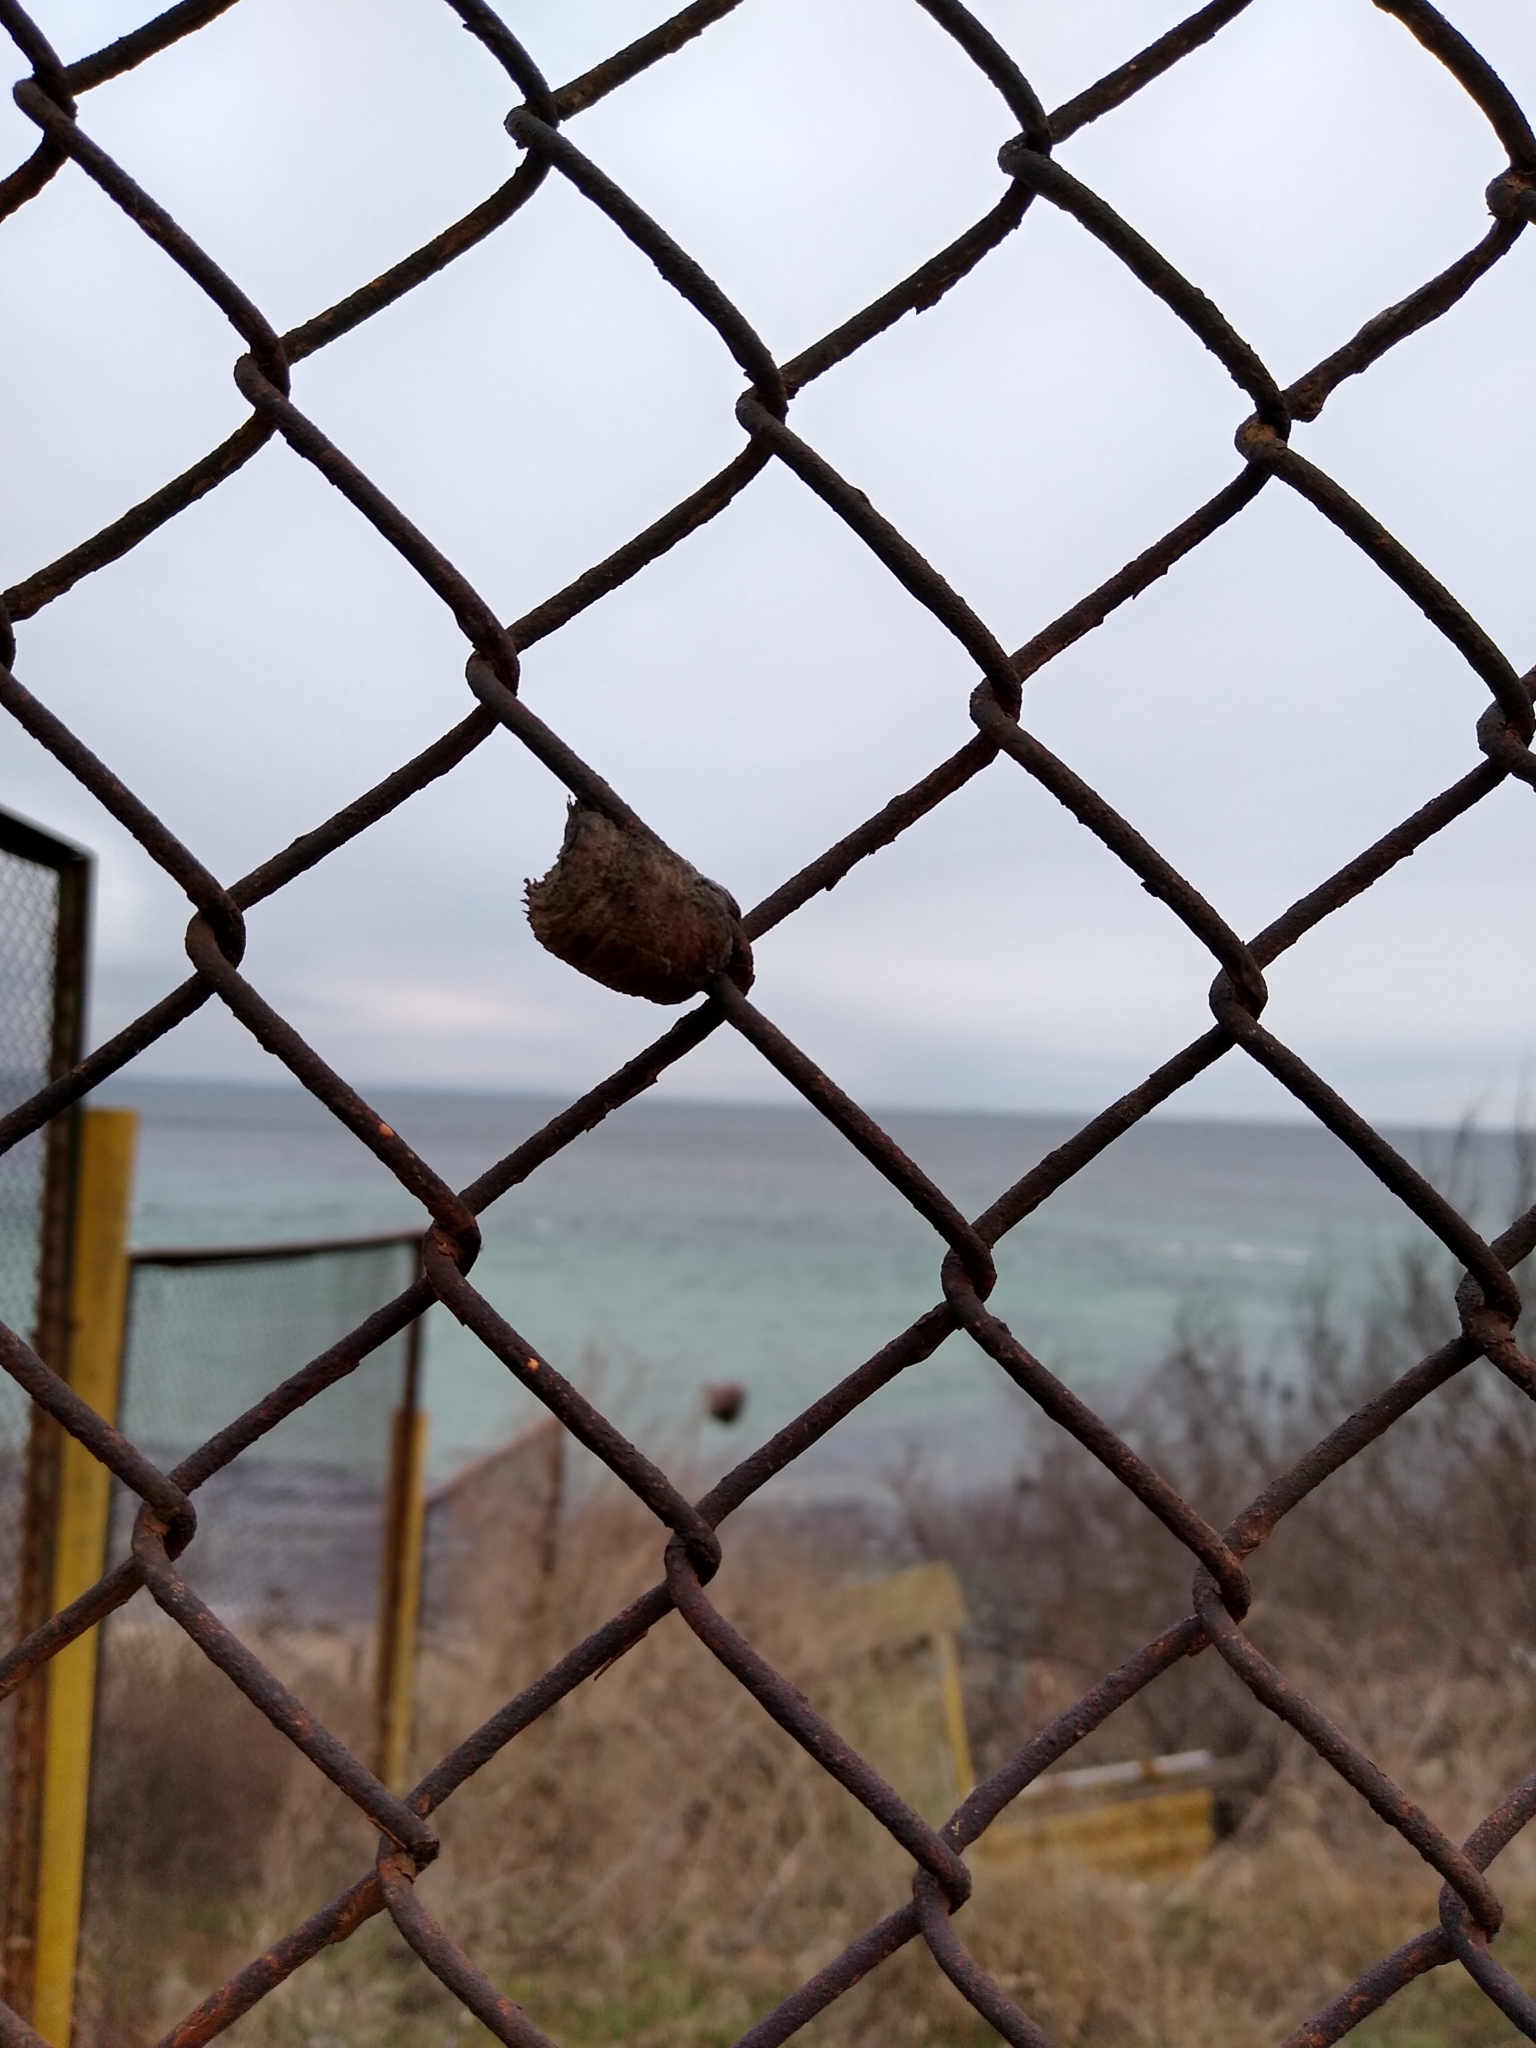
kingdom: Animalia
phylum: Arthropoda
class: Insecta
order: Mantodea
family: Mantidae
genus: Hierodula
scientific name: Hierodula transcaucasica
